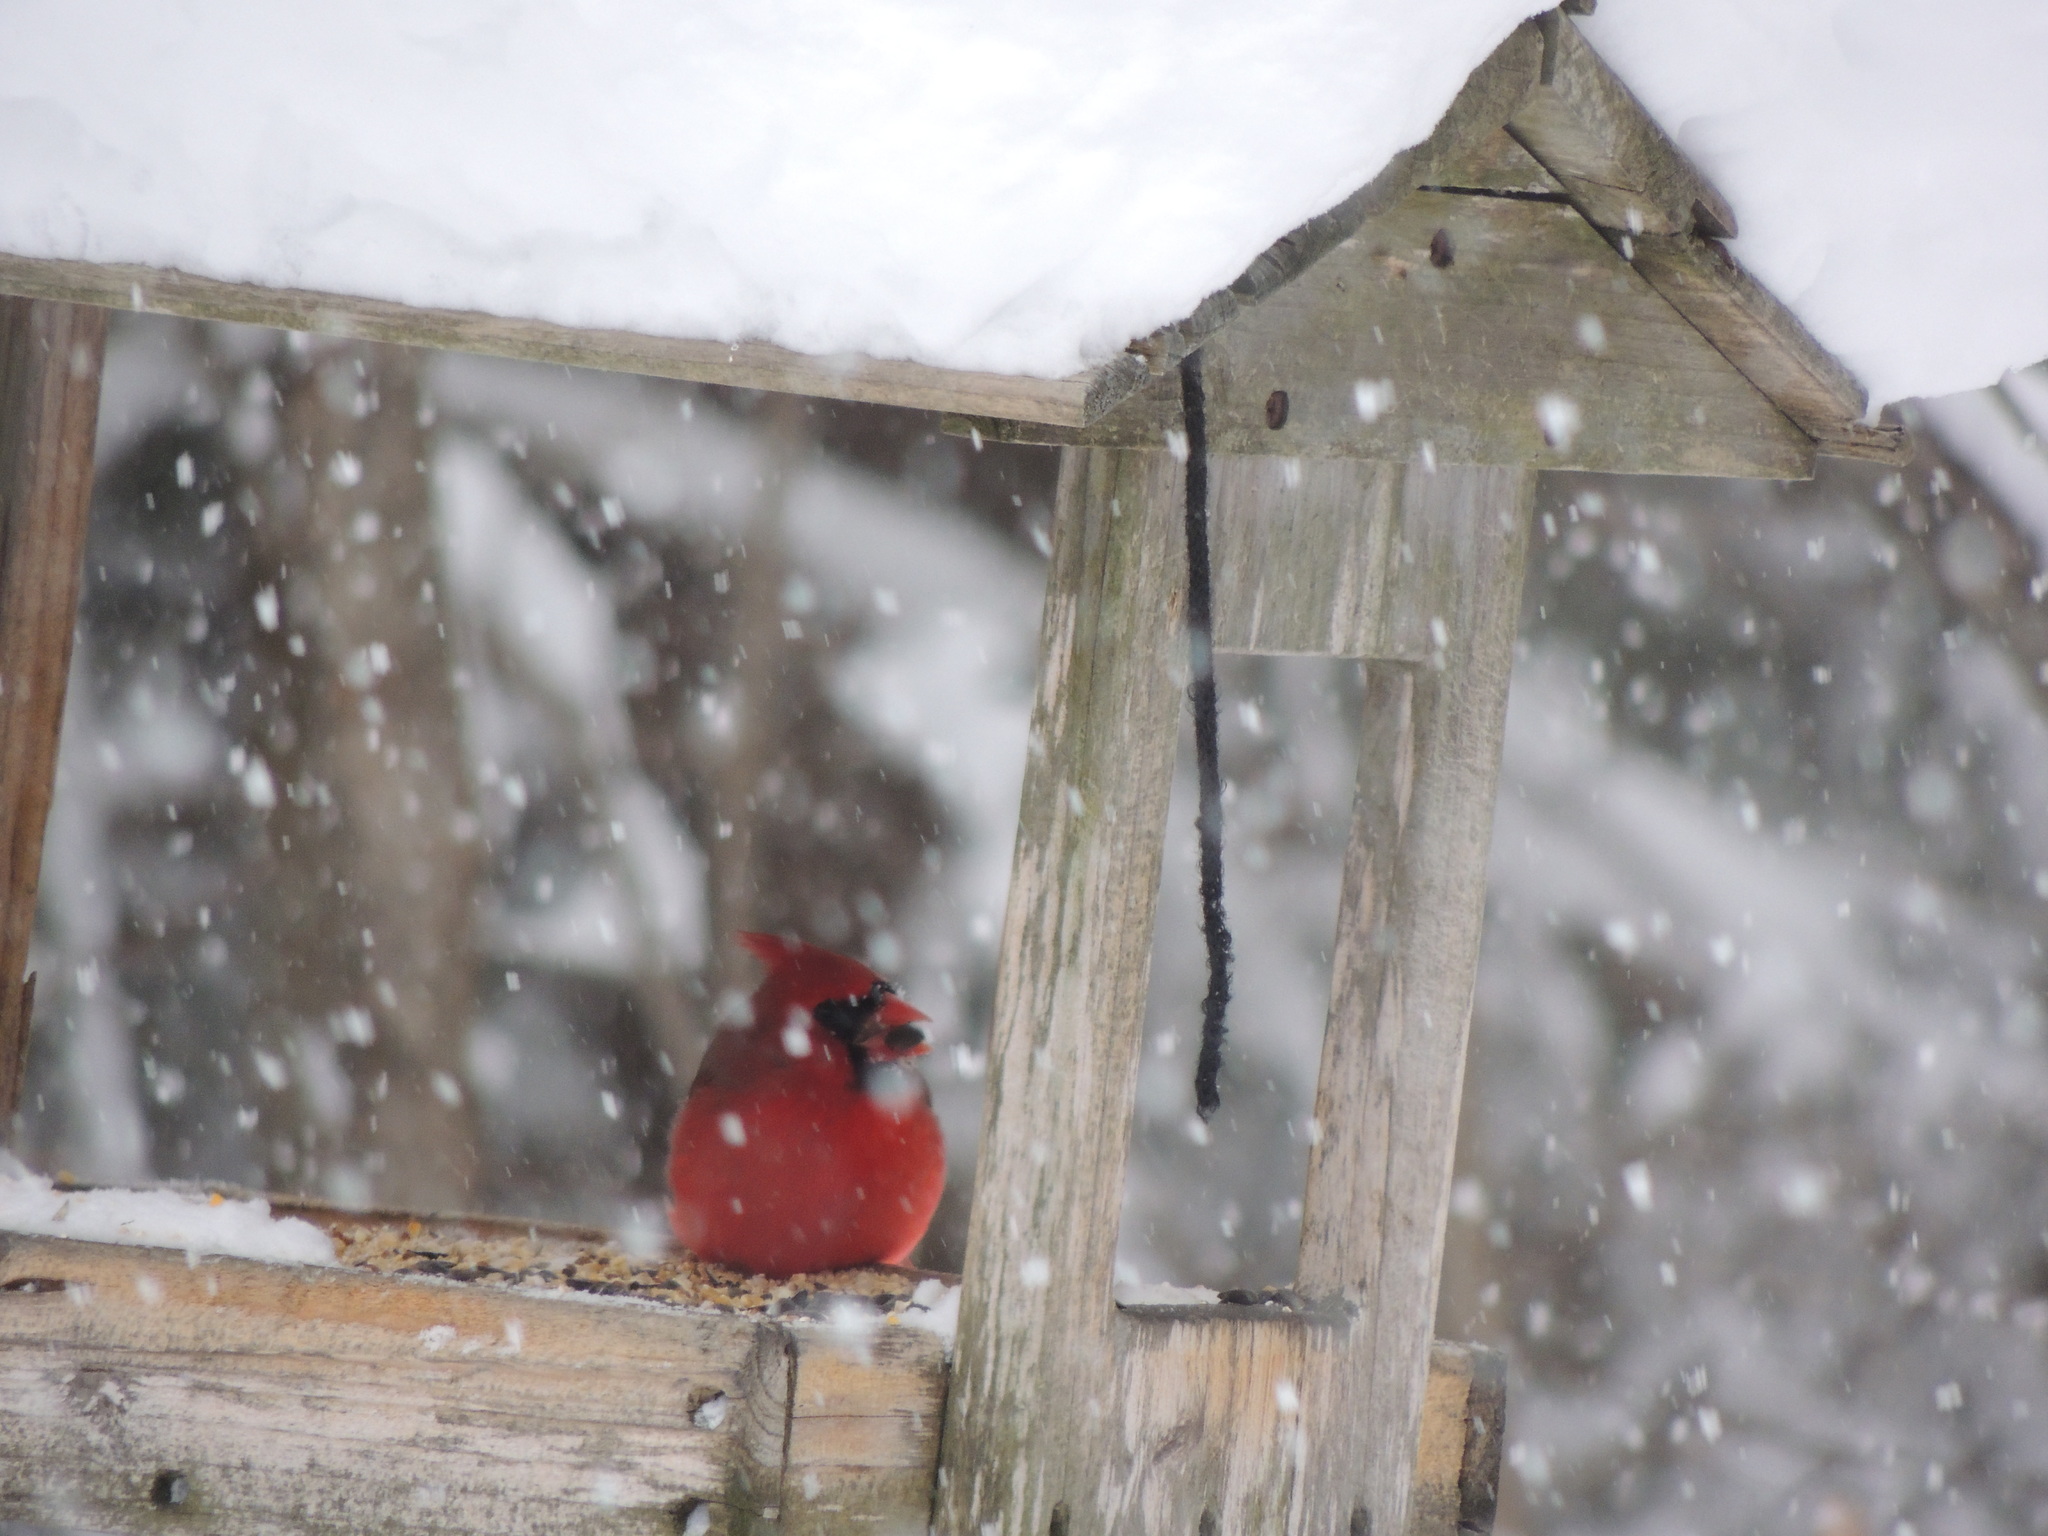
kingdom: Animalia
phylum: Chordata
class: Aves
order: Passeriformes
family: Cardinalidae
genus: Cardinalis
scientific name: Cardinalis cardinalis
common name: Northern cardinal
